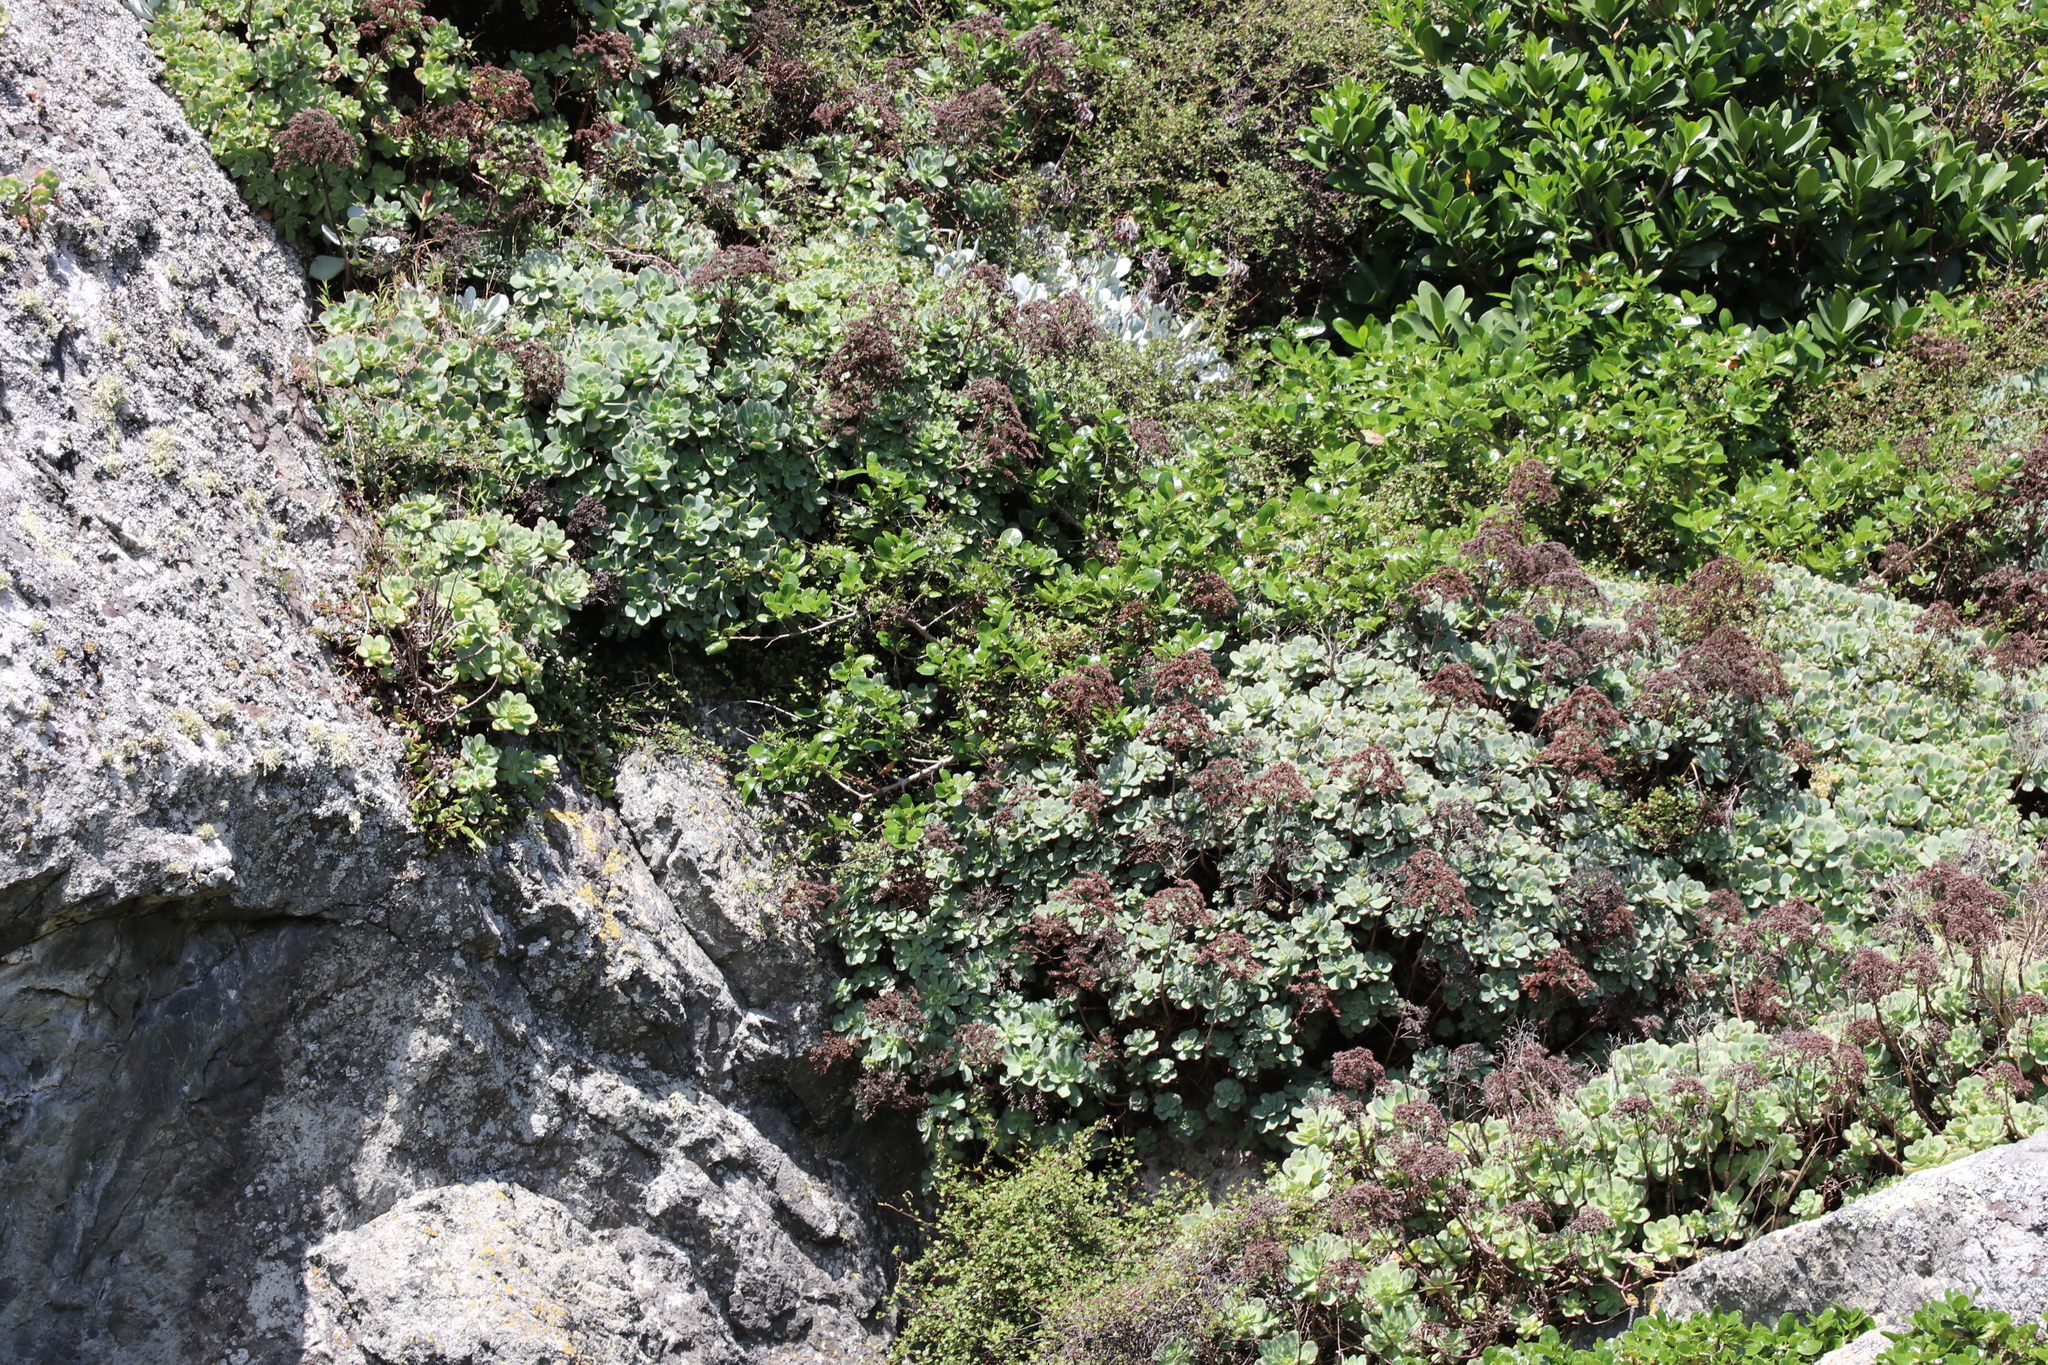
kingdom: Plantae
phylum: Tracheophyta
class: Magnoliopsida
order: Saxifragales
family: Crassulaceae
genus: Cotyledon
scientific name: Cotyledon orbiculata
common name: Pig's ear
